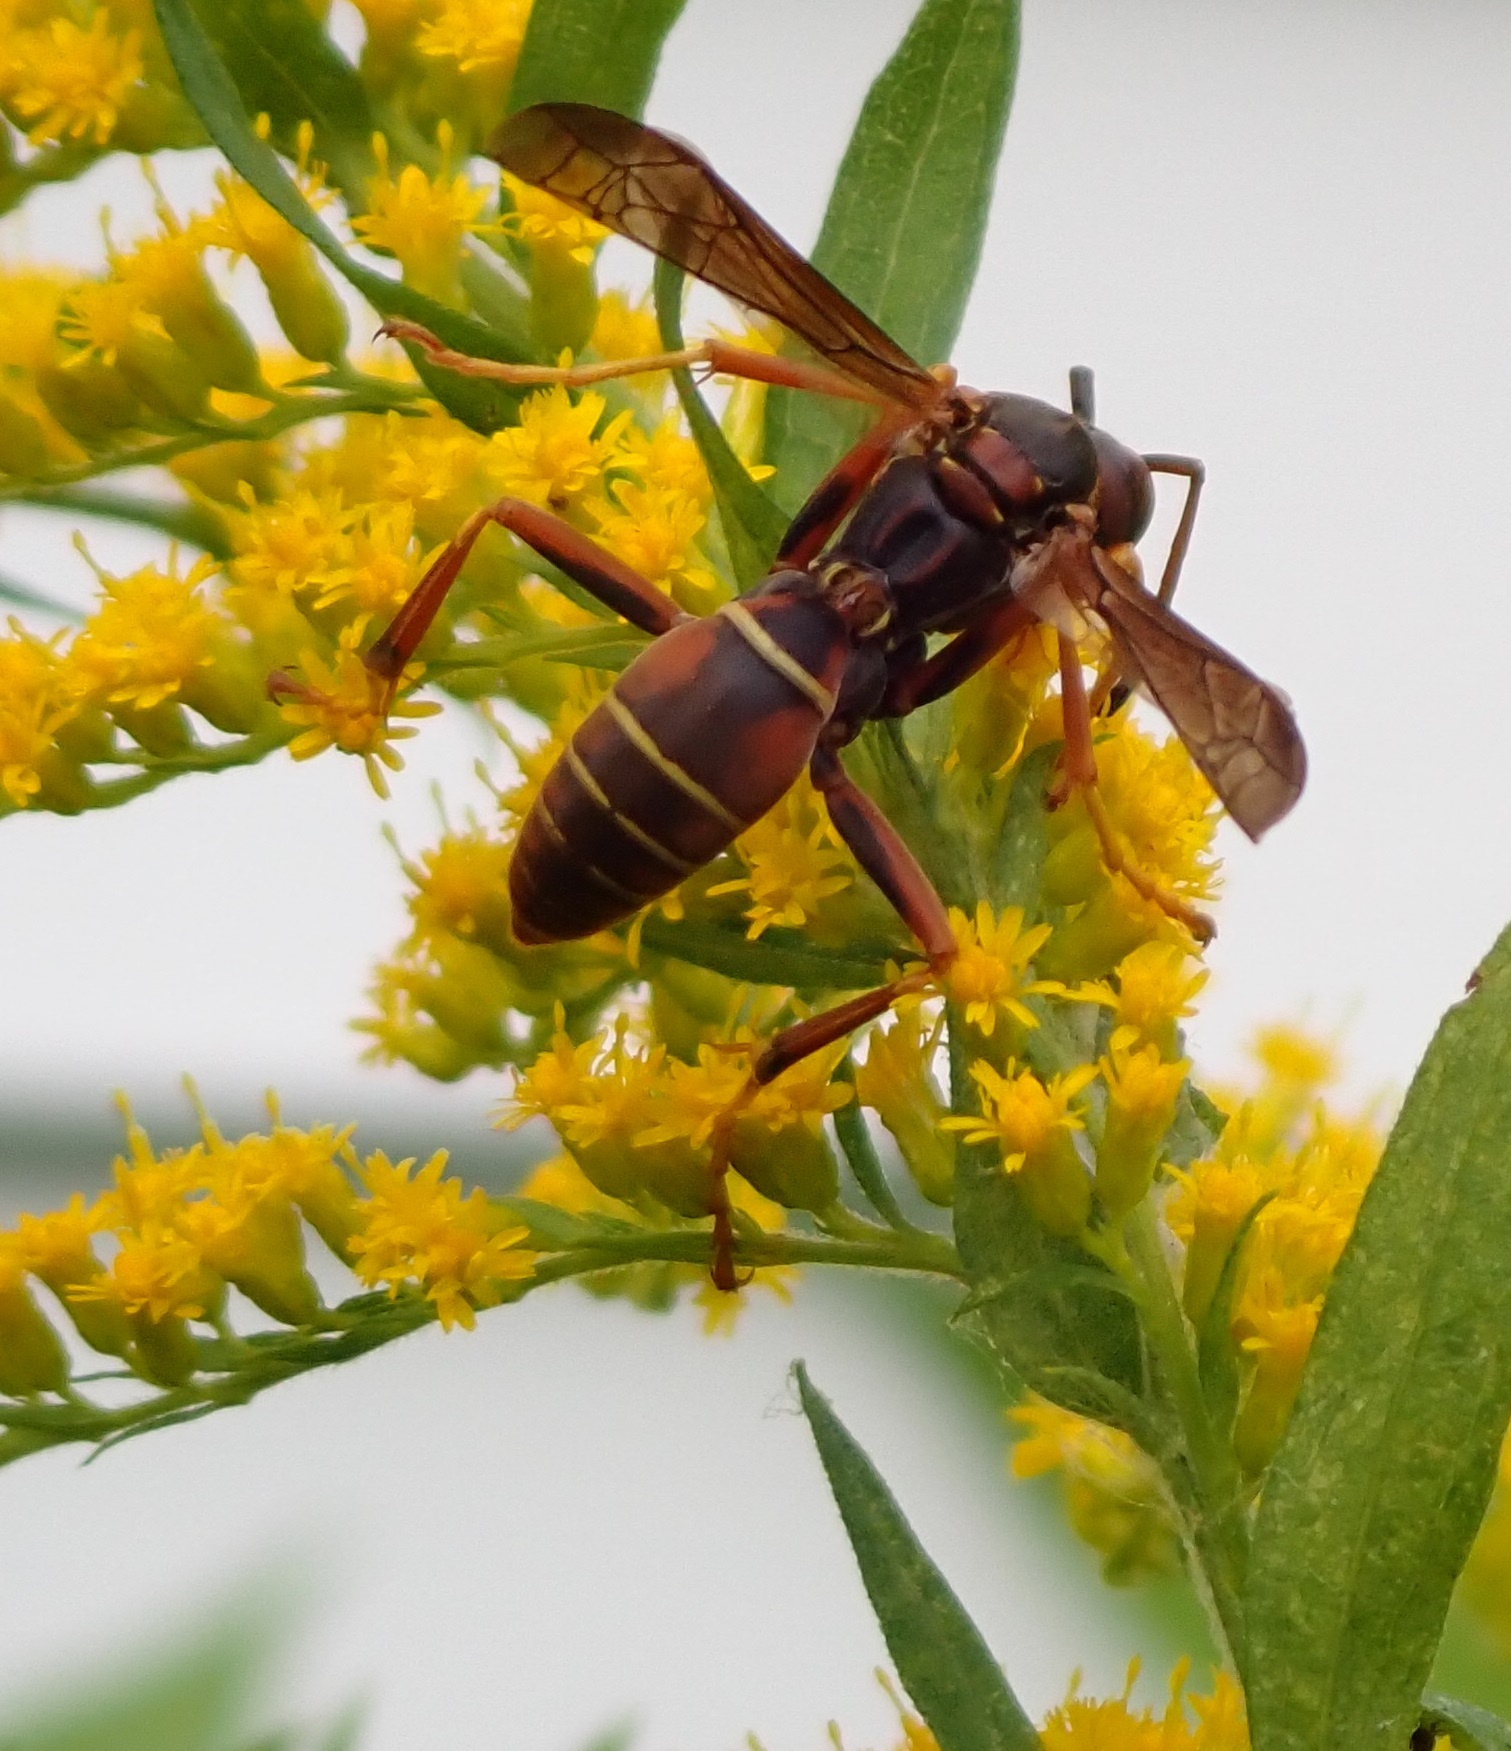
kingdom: Animalia
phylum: Arthropoda
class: Insecta
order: Hymenoptera
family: Eumenidae
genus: Polistes
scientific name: Polistes fuscatus
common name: Dark paper wasp
